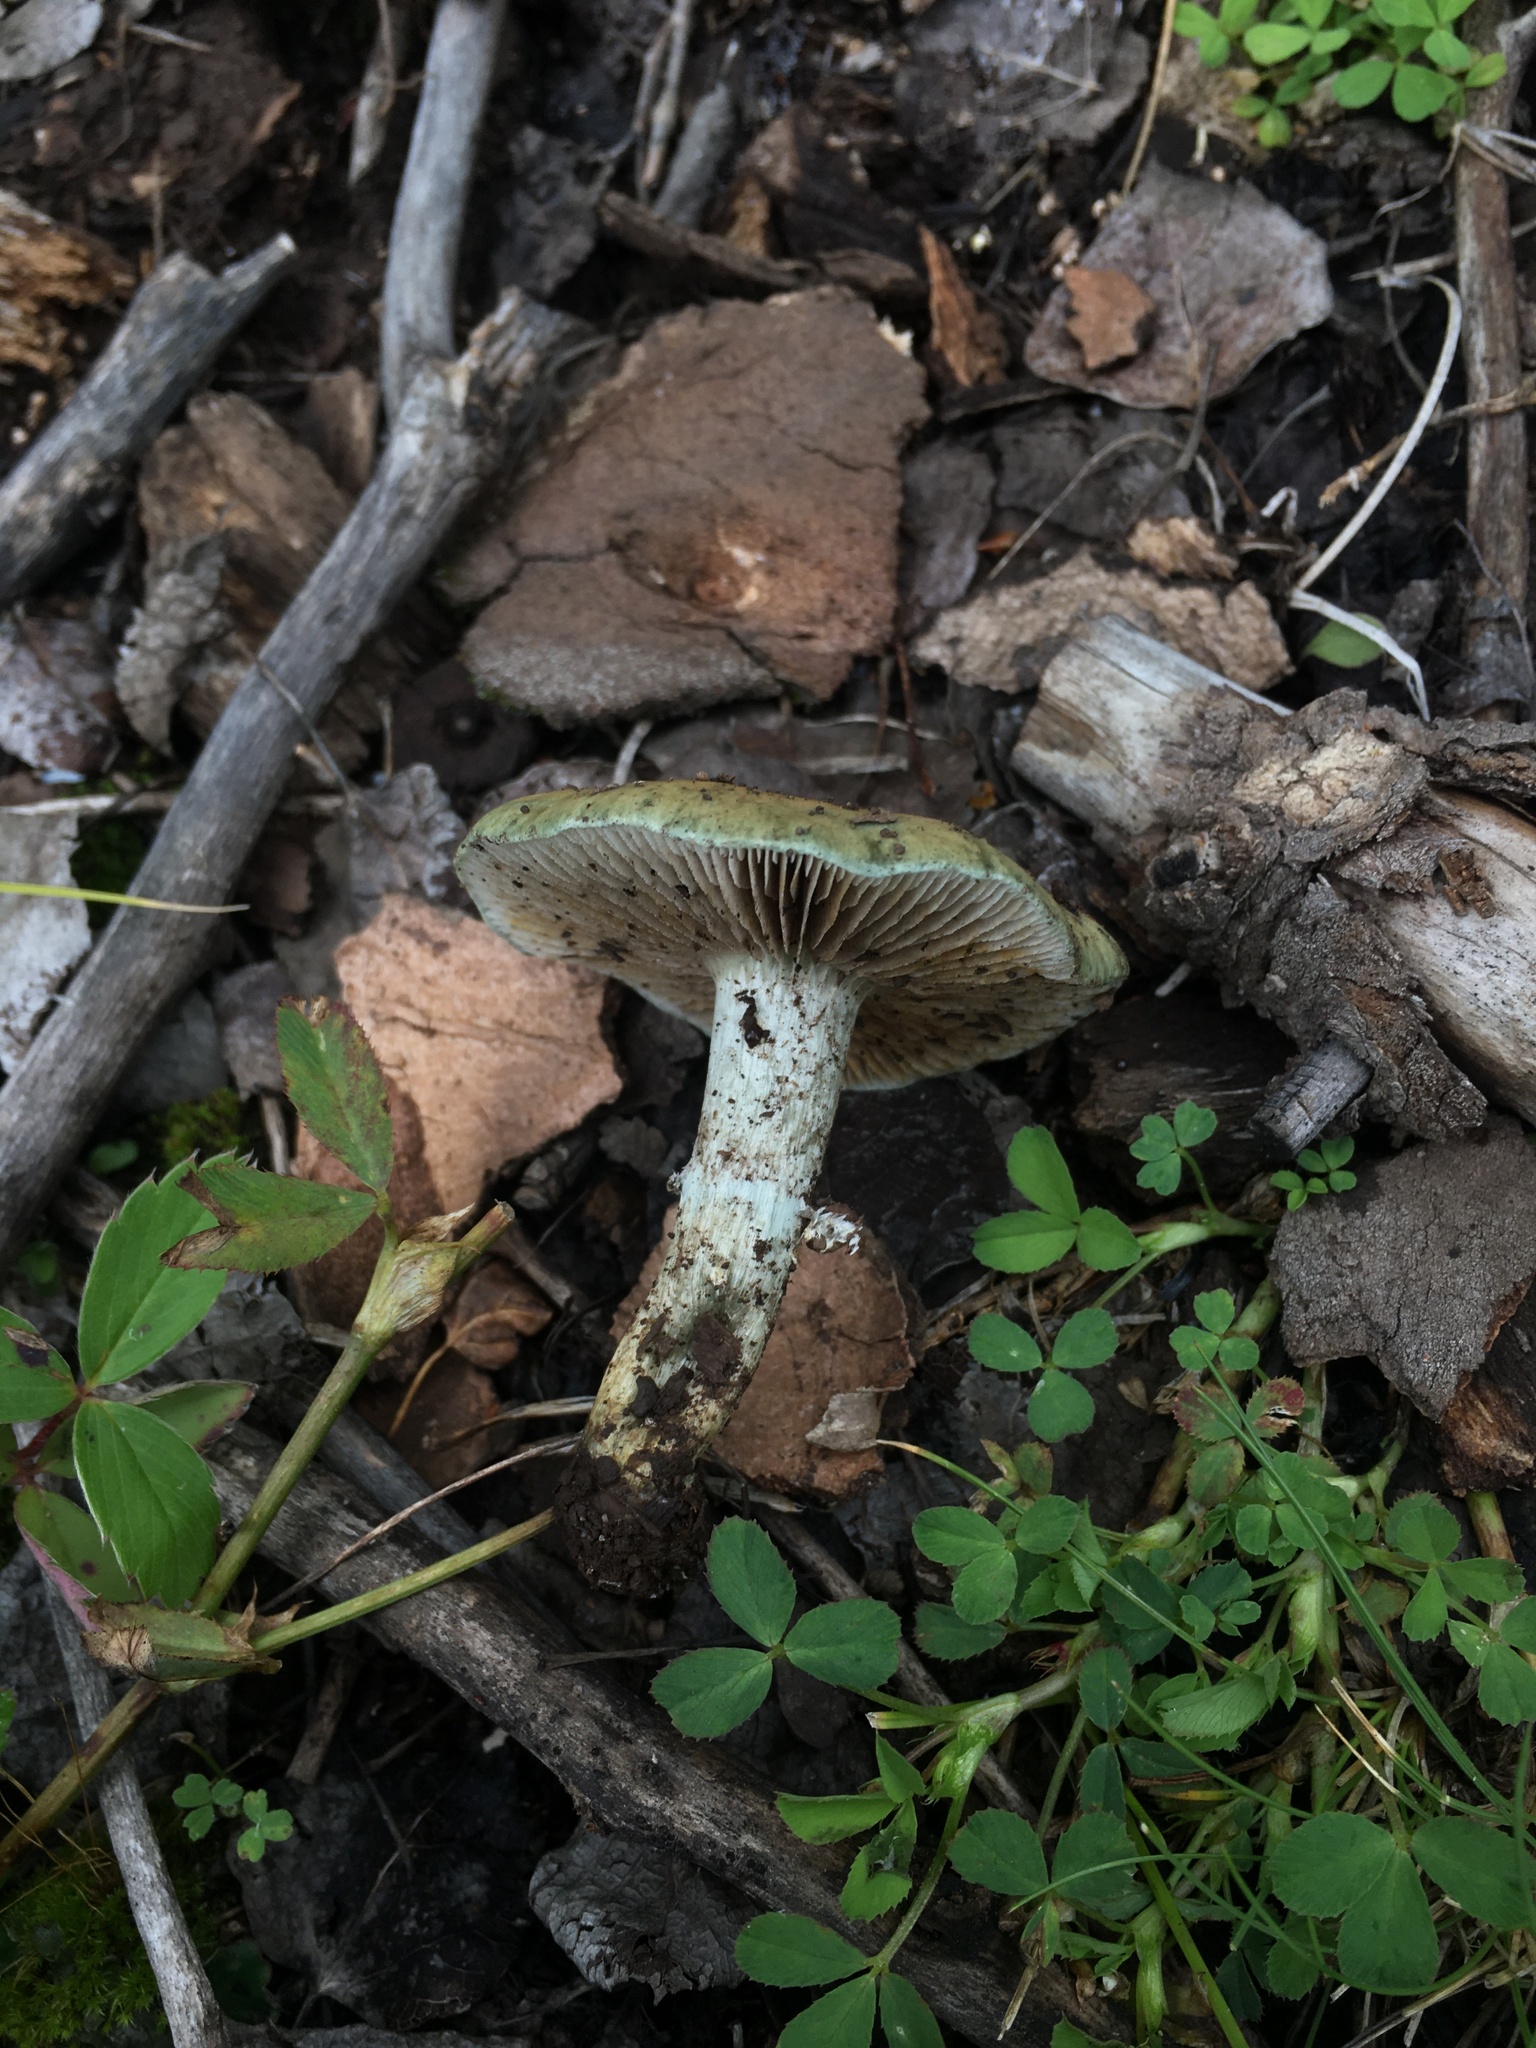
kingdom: Fungi
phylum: Basidiomycota
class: Agaricomycetes
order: Agaricales
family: Strophariaceae
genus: Stropharia
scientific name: Stropharia aeruginosa
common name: Verdigris roundhead
